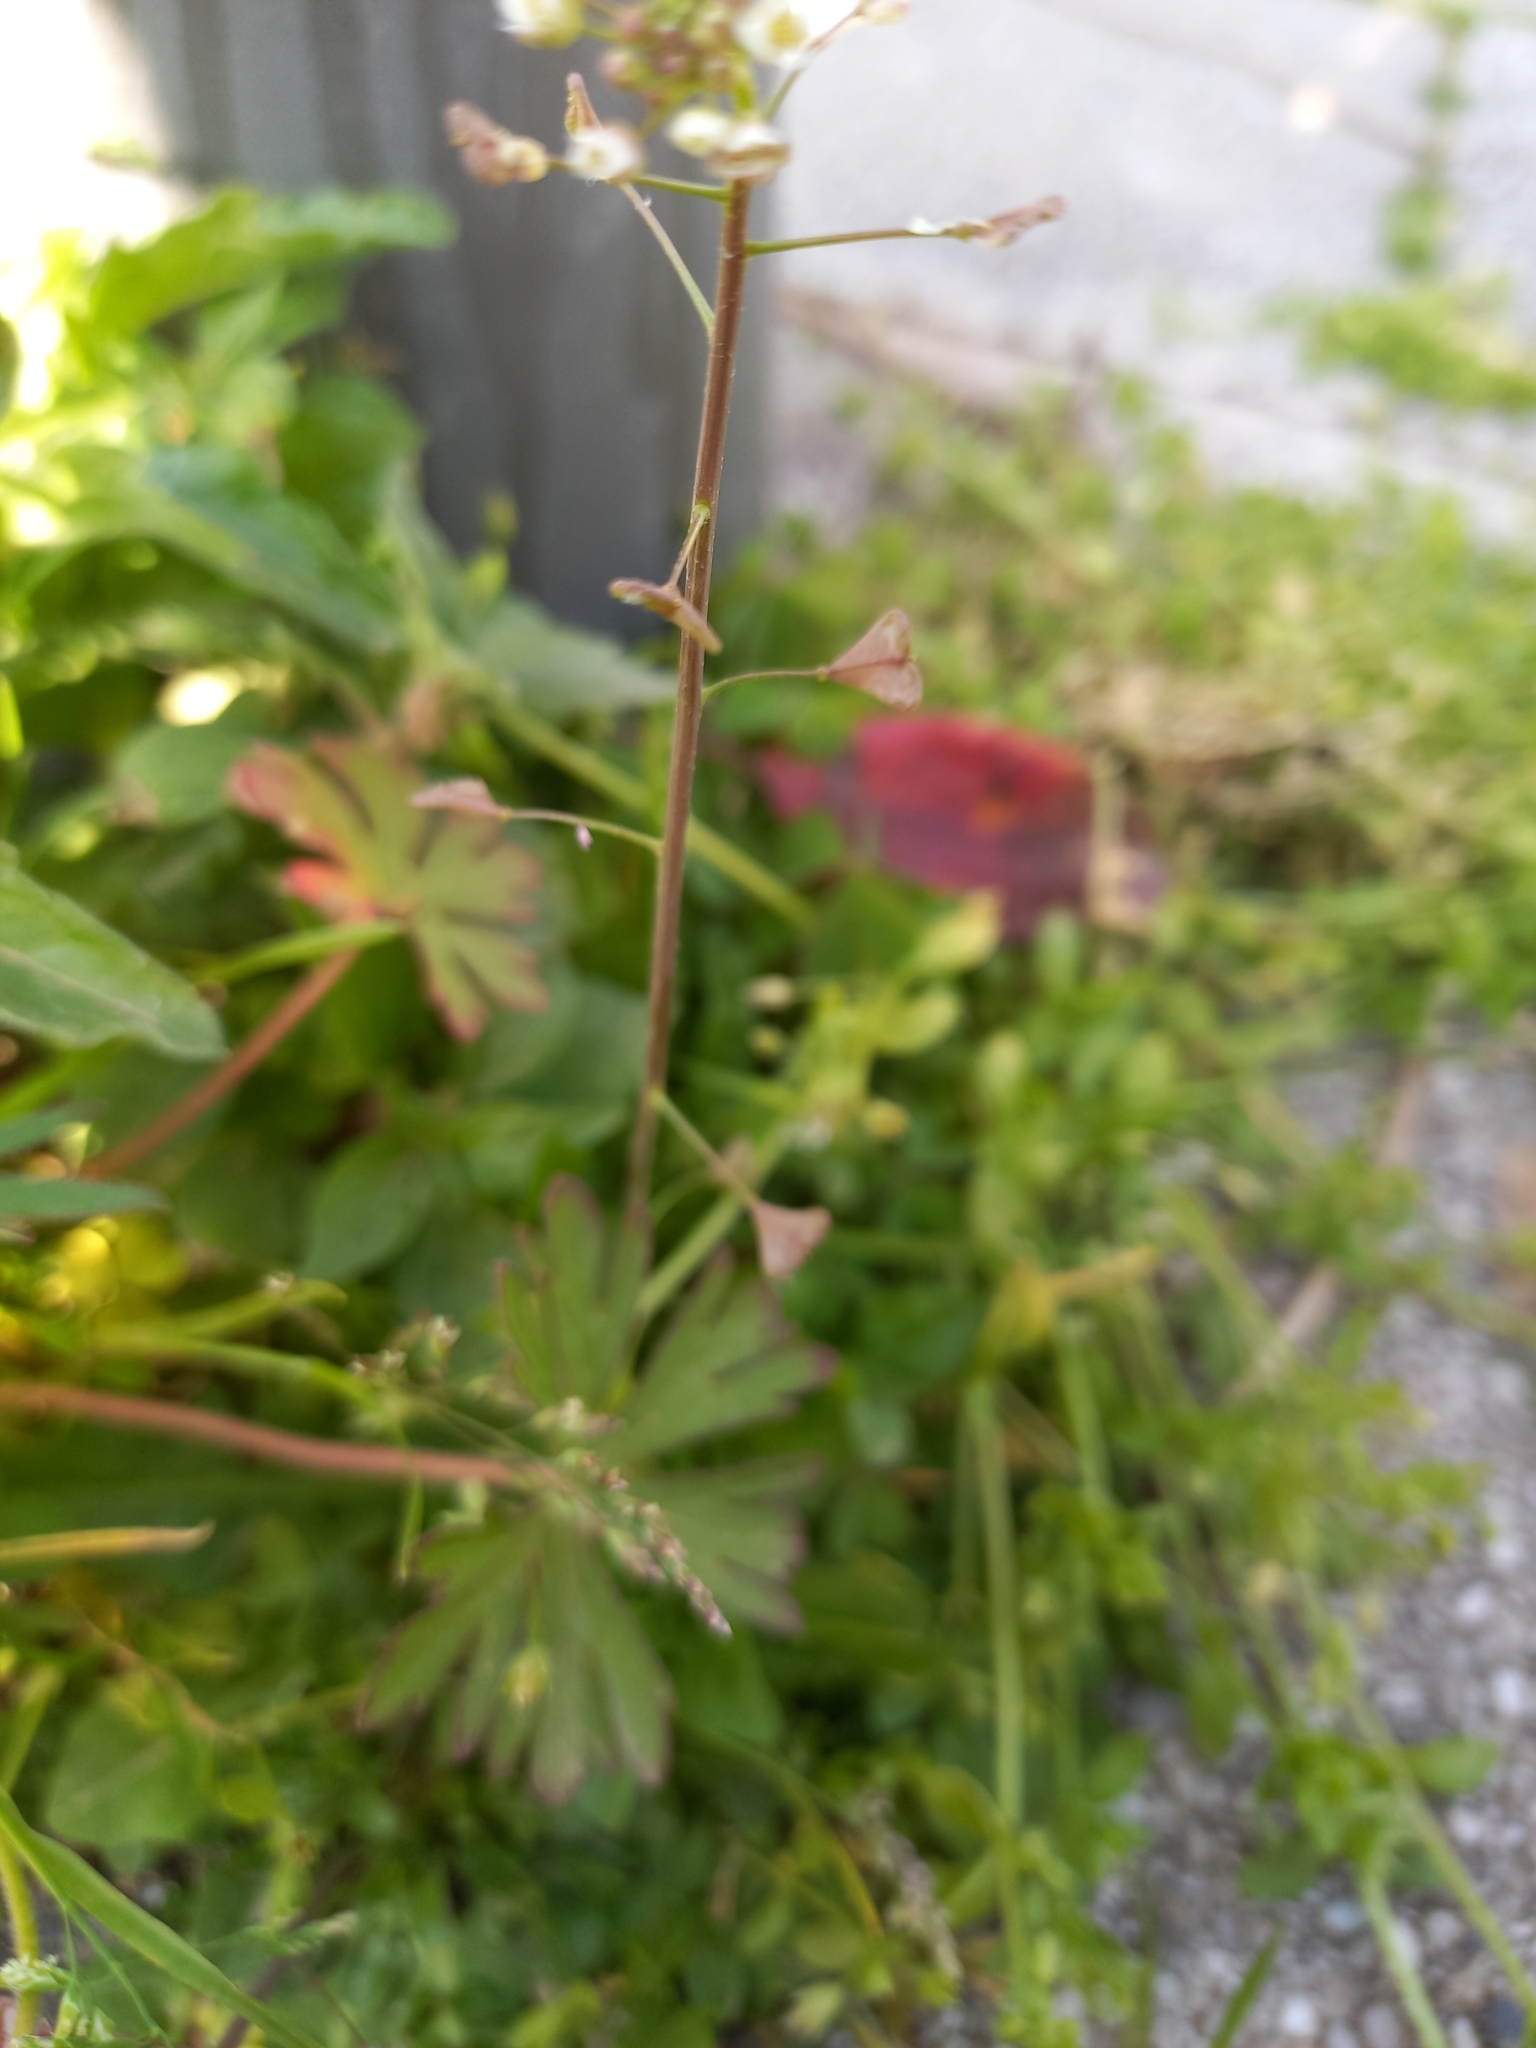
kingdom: Plantae
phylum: Tracheophyta
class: Magnoliopsida
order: Brassicales
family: Brassicaceae
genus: Capsella
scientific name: Capsella rubella
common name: Pink shepherd's-purse
